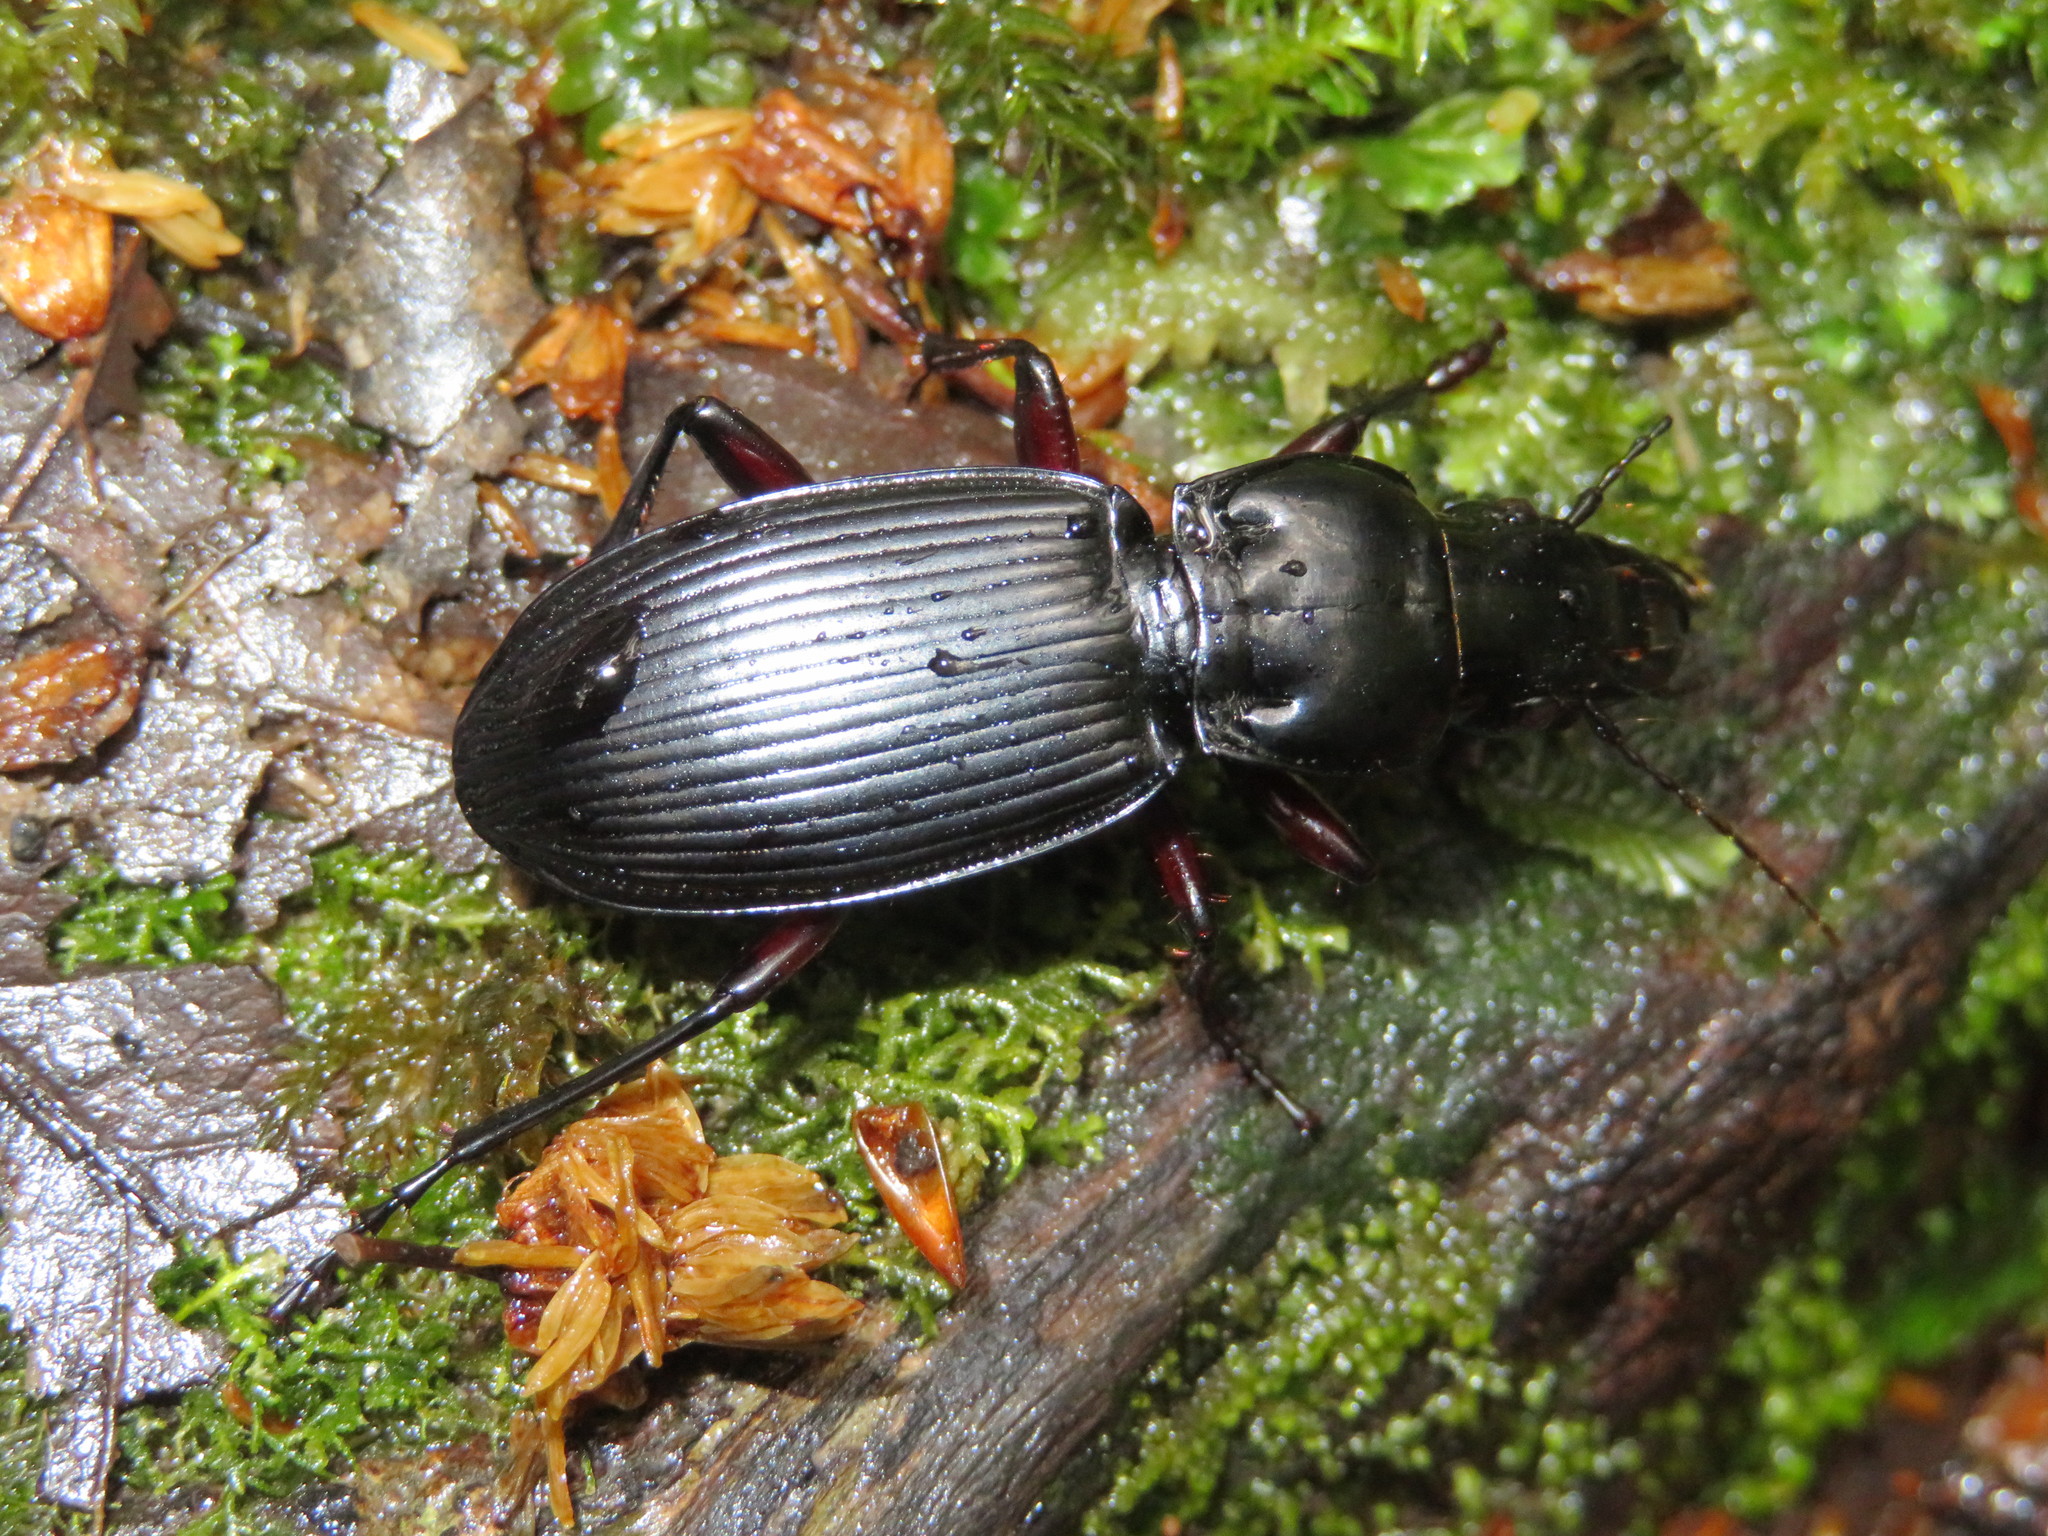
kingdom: Animalia
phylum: Arthropoda
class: Insecta
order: Coleoptera
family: Carabidae
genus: Plocamostethus
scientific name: Plocamostethus planiusculus
